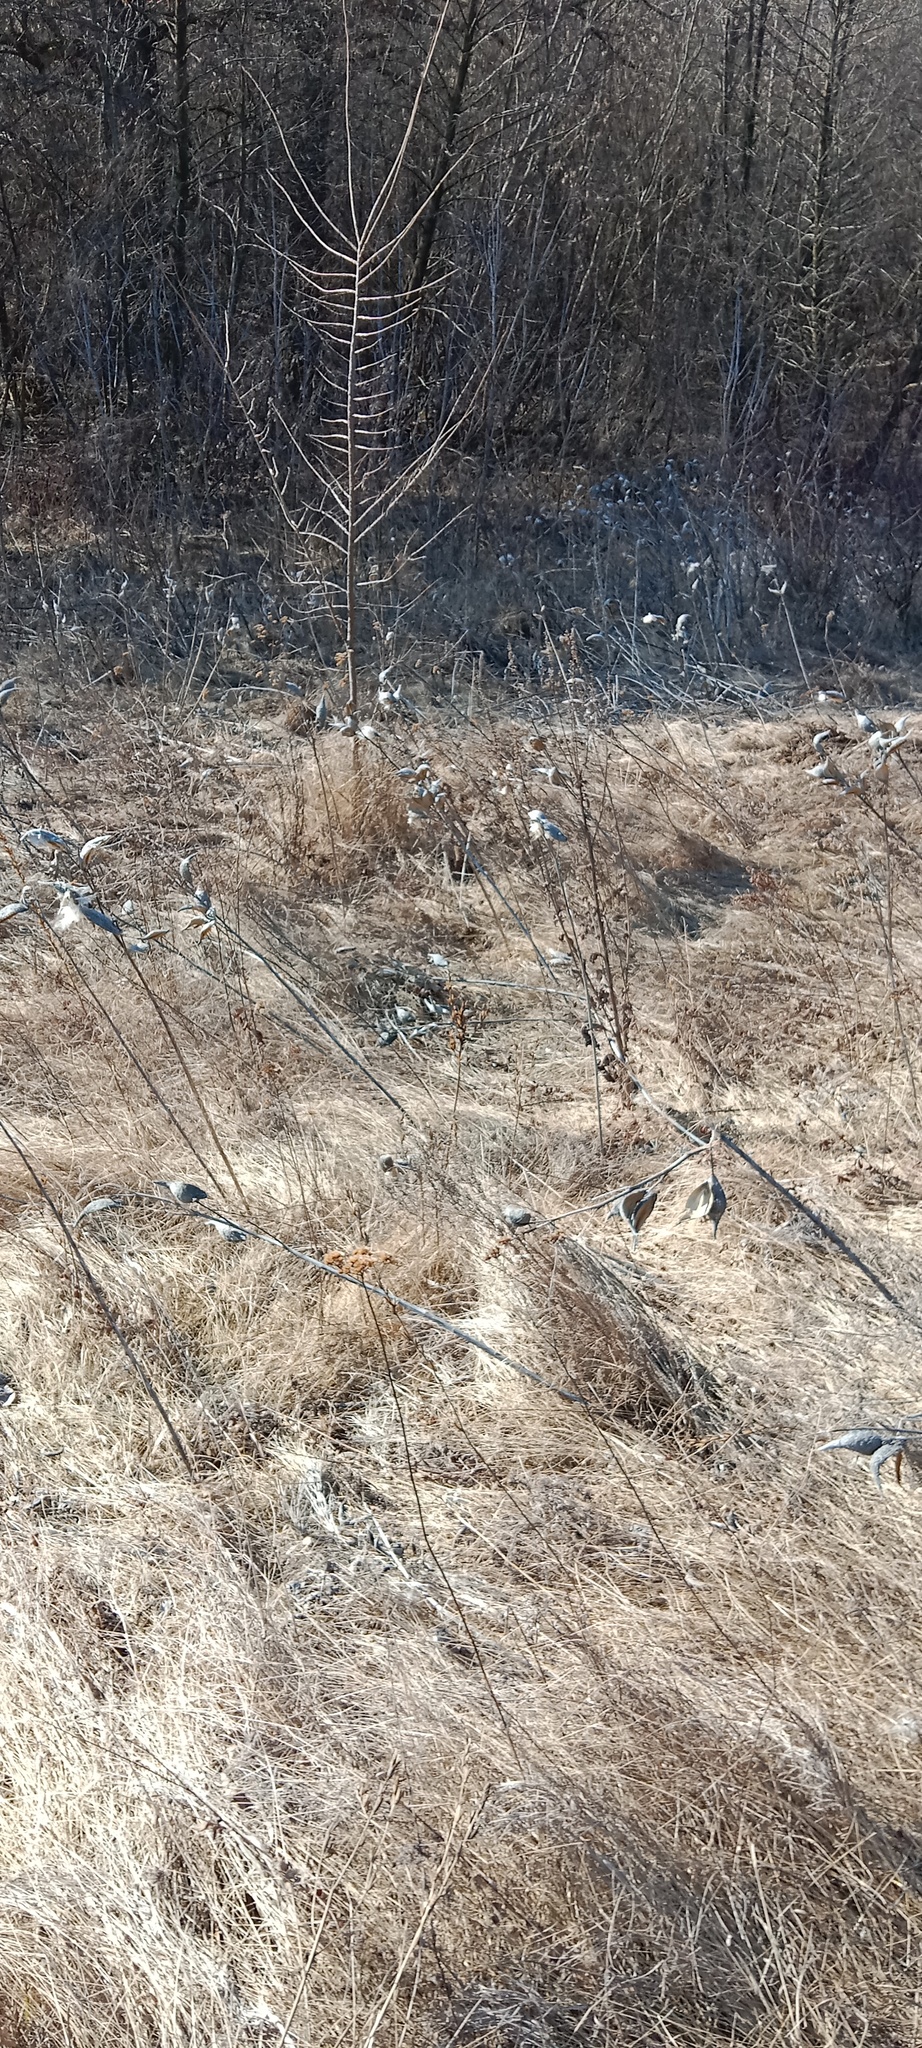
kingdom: Plantae
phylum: Tracheophyta
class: Magnoliopsida
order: Gentianales
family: Apocynaceae
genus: Asclepias
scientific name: Asclepias syriaca
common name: Common milkweed
